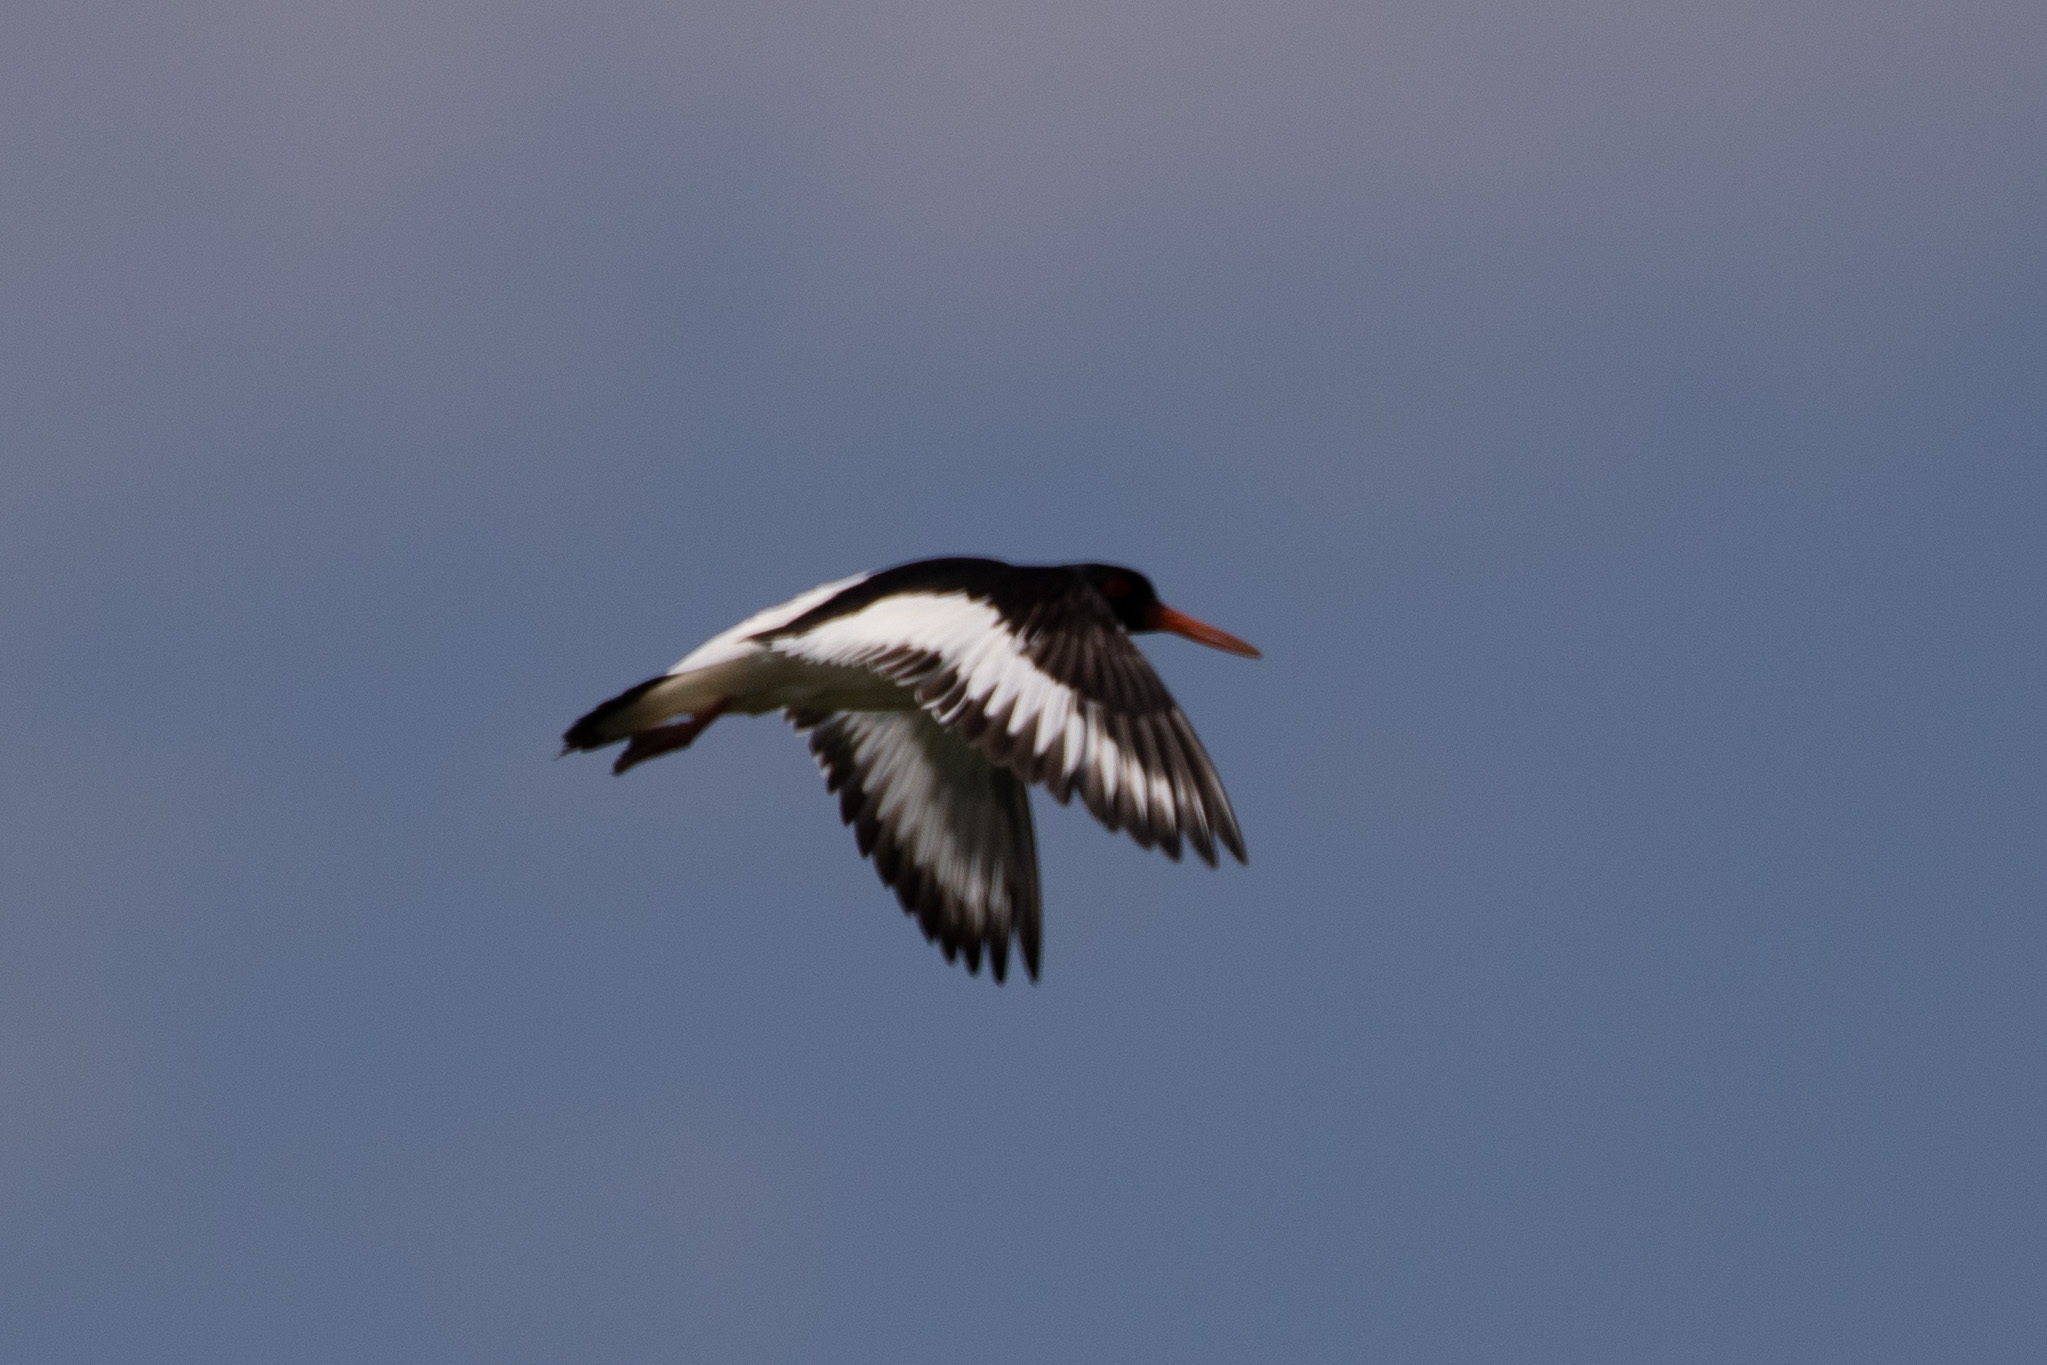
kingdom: Animalia
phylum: Chordata
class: Aves
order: Charadriiformes
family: Haematopodidae
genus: Haematopus
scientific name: Haematopus ostralegus
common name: Eurasian oystercatcher
